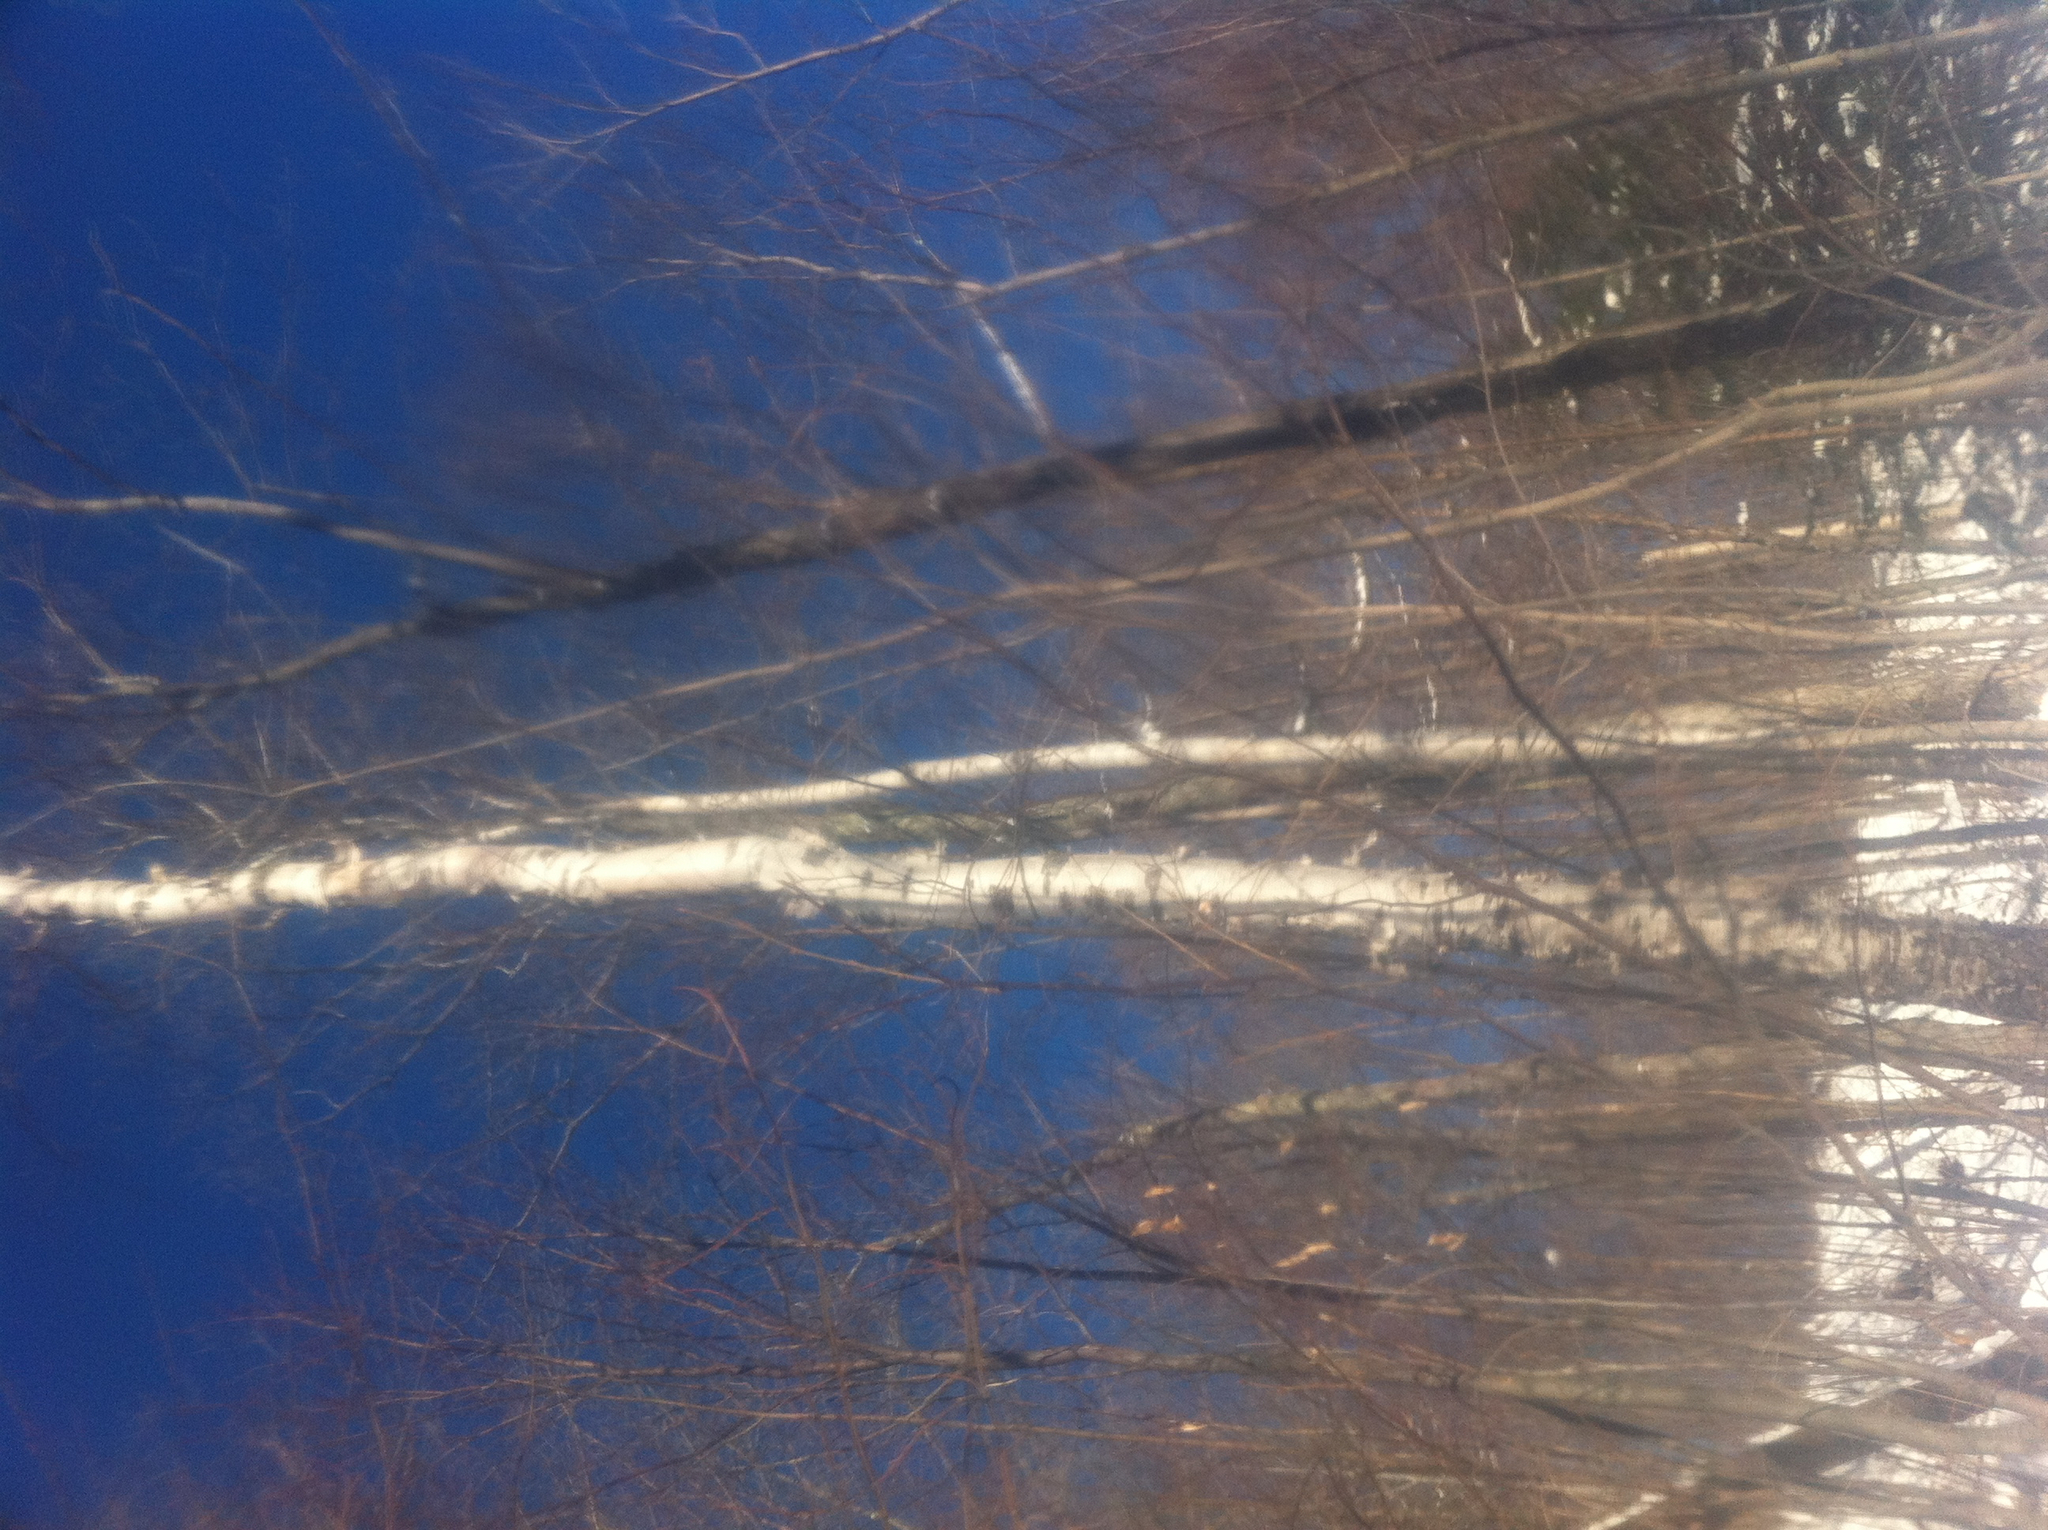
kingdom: Plantae
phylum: Tracheophyta
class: Magnoliopsida
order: Fagales
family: Betulaceae
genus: Betula
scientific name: Betula papyrifera
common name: Paper birch
